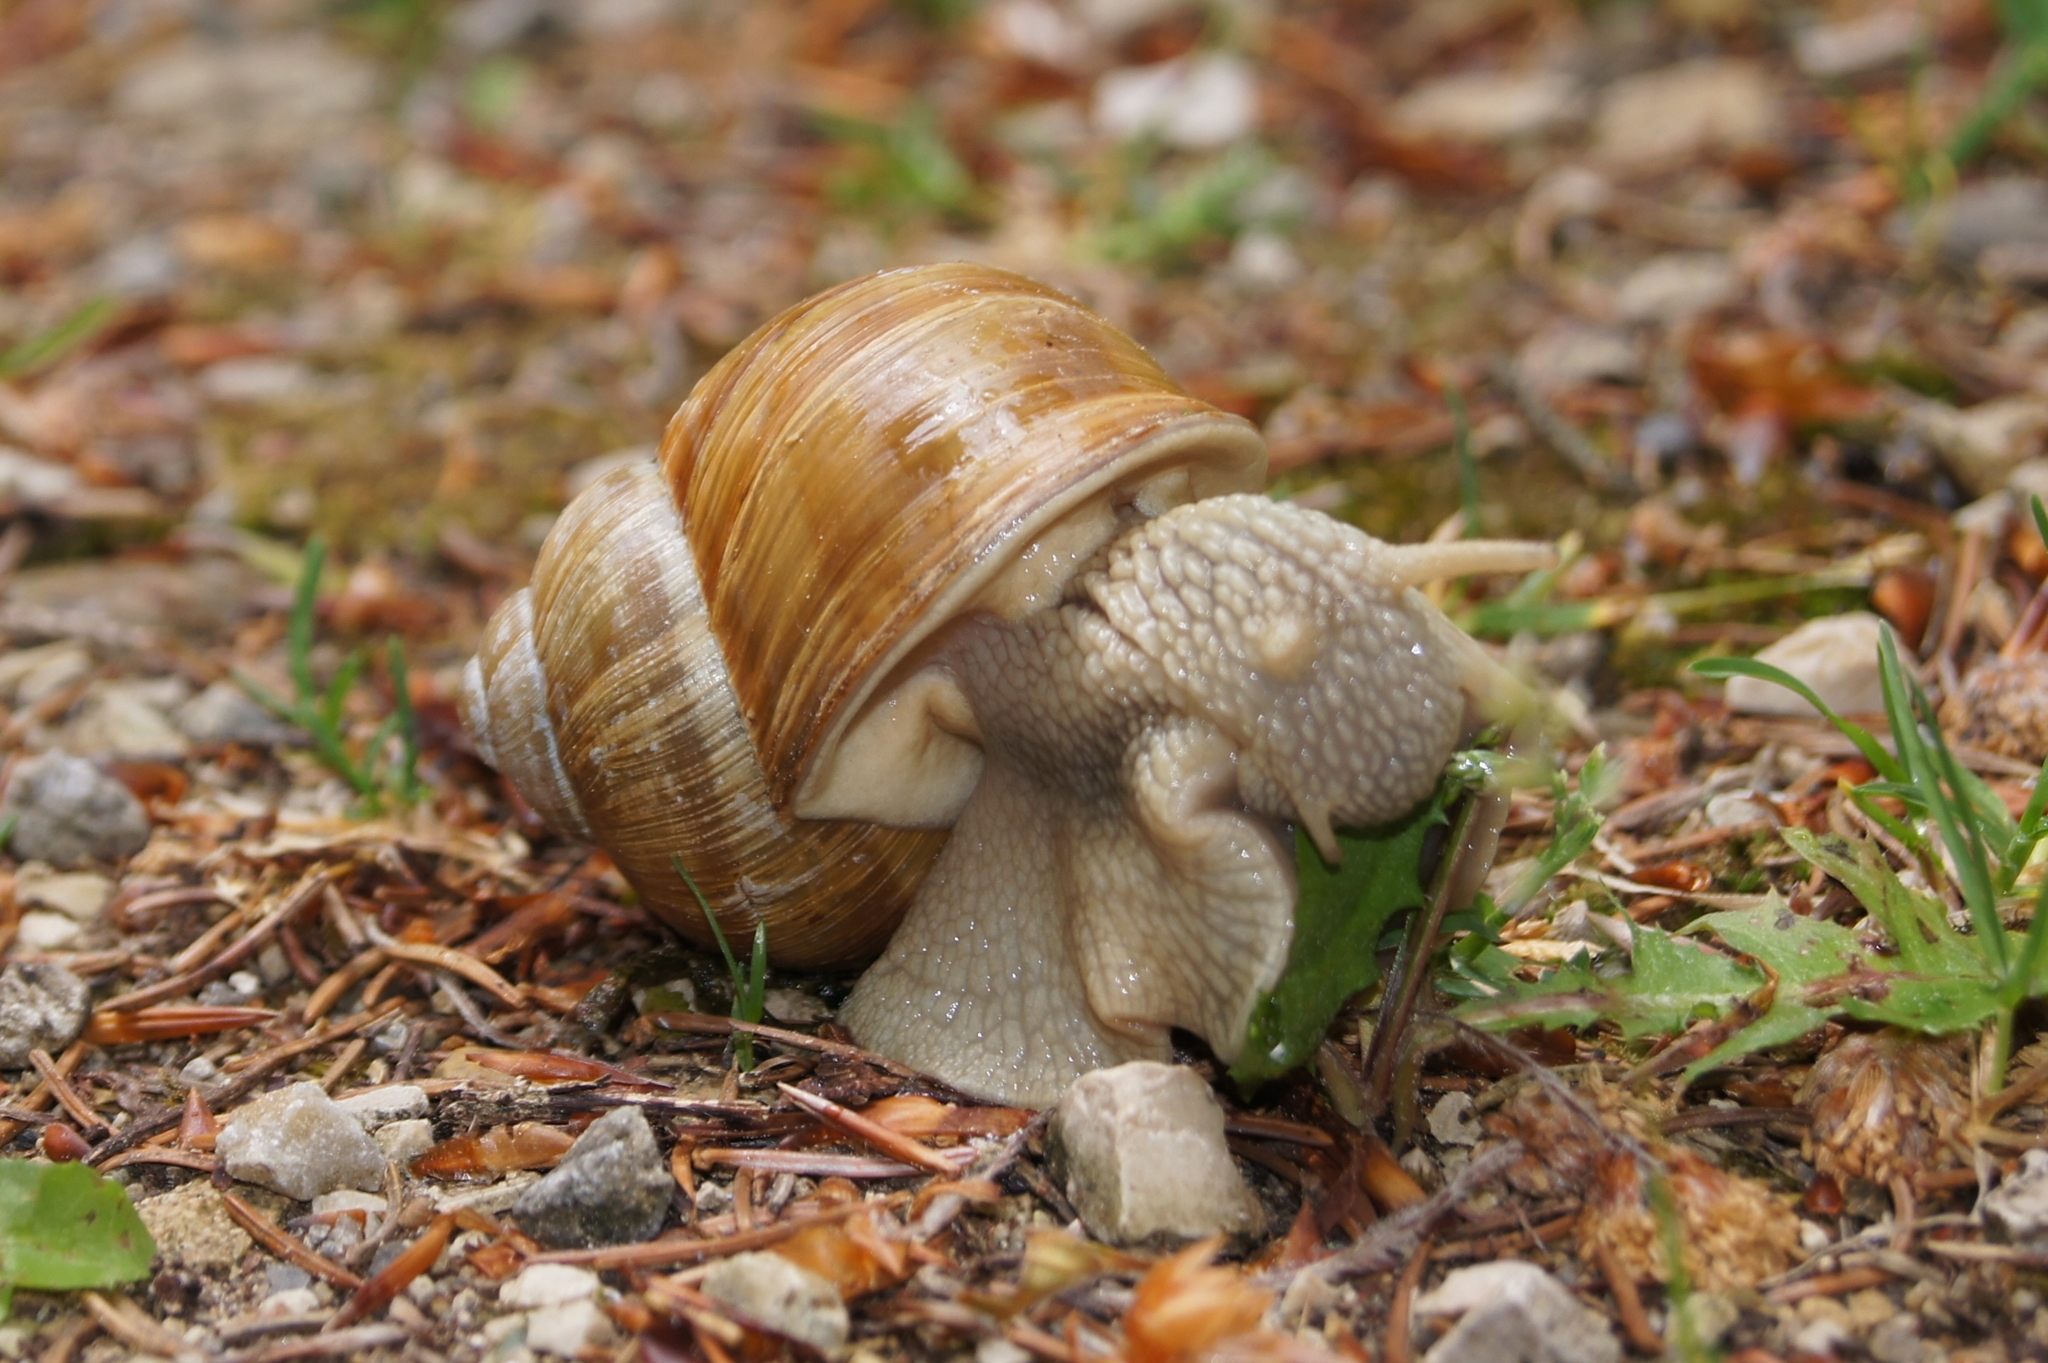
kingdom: Animalia
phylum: Mollusca
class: Gastropoda
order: Stylommatophora
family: Helicidae
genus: Helix
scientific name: Helix pomatia
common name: Roman snail
